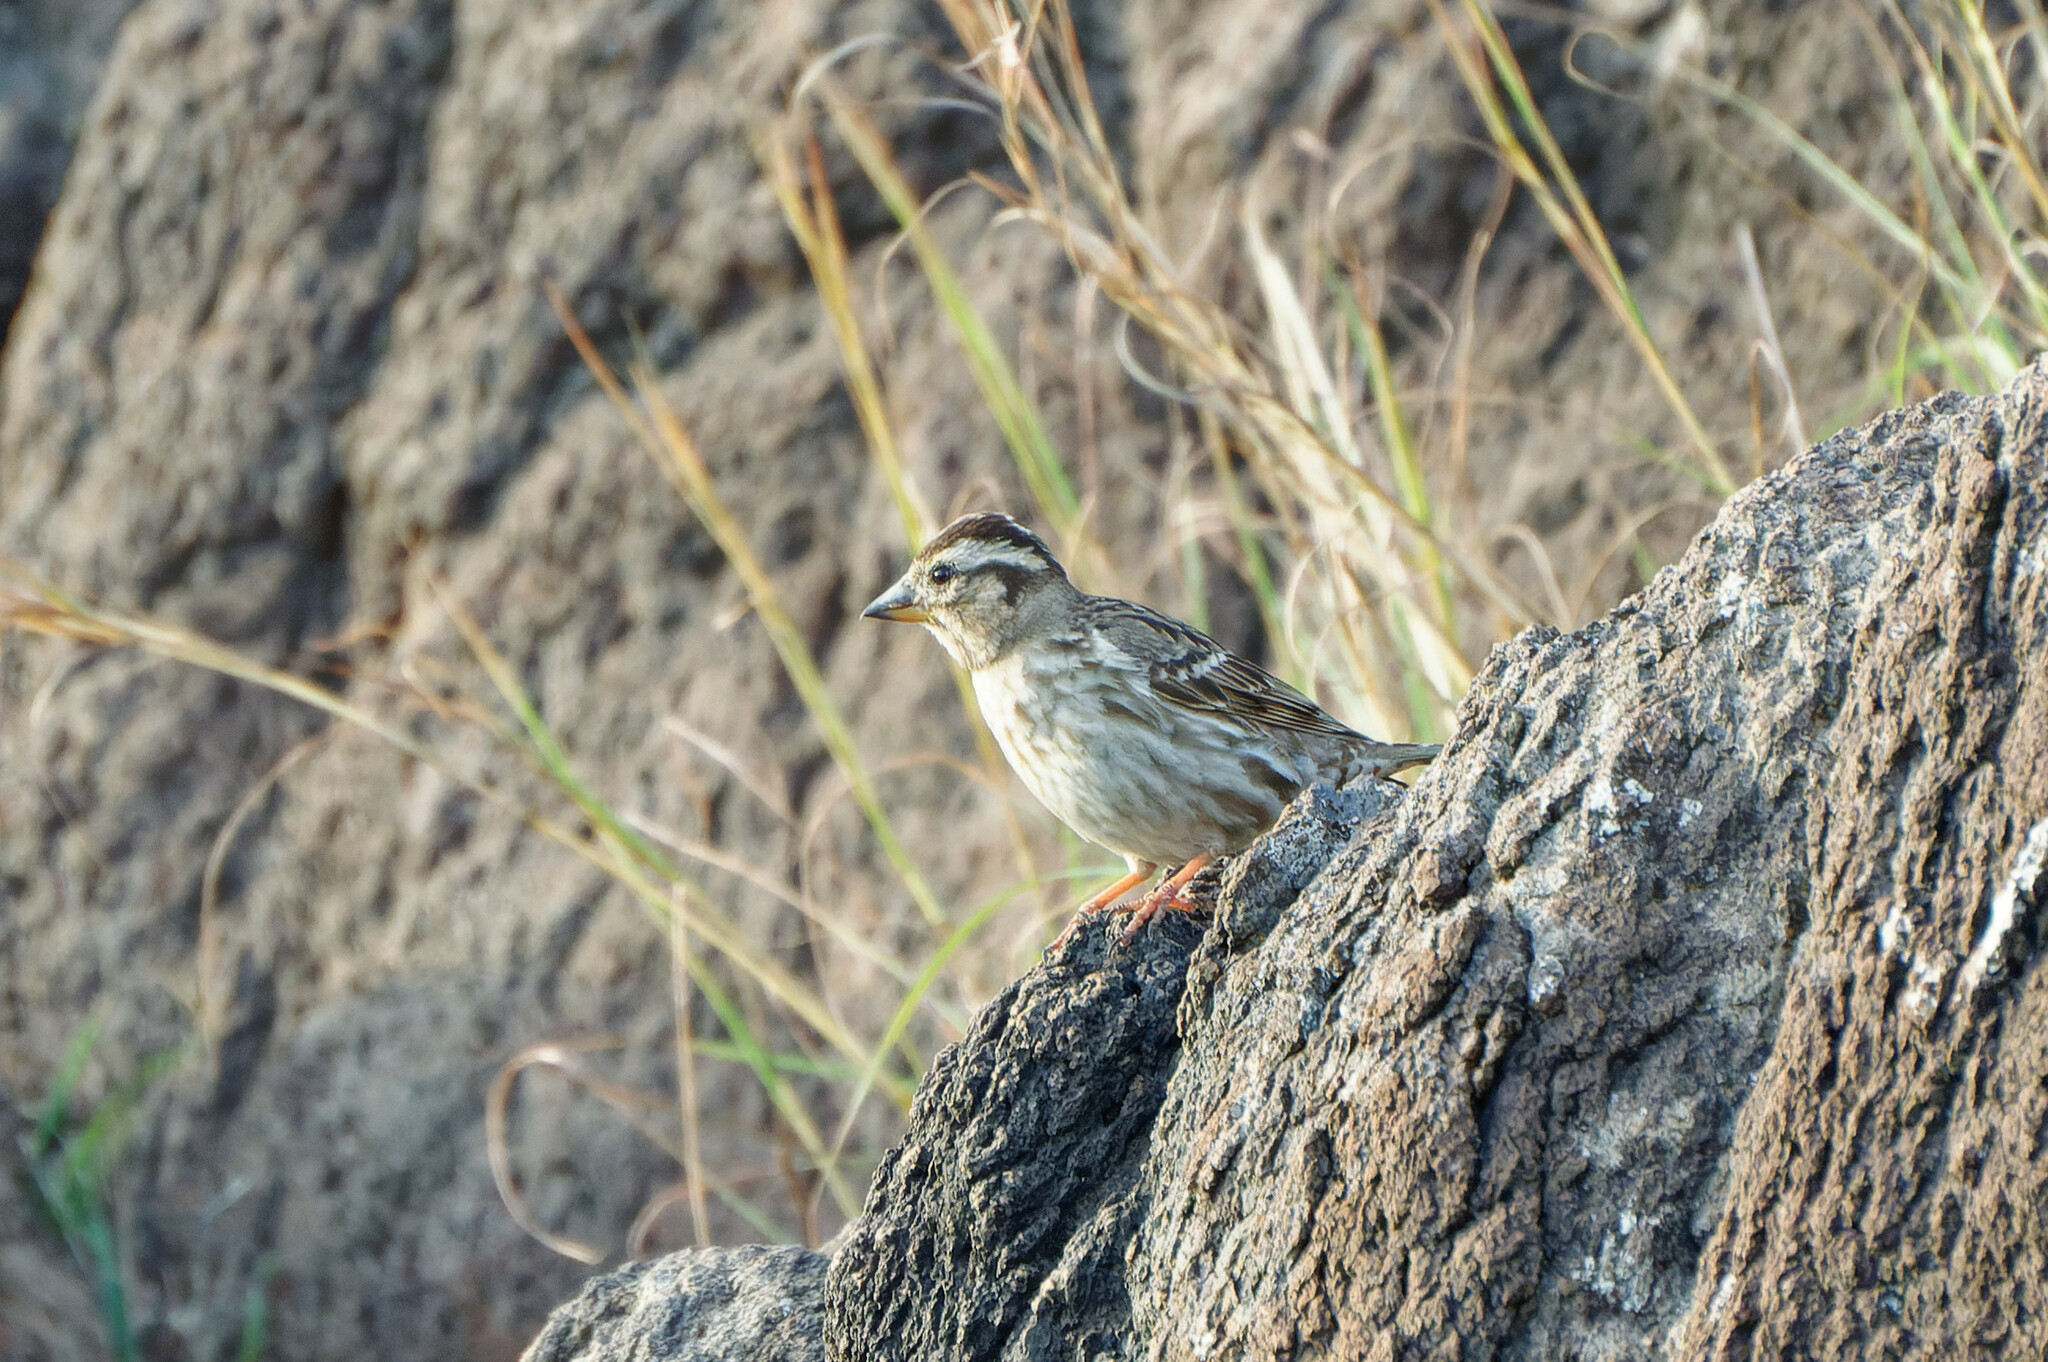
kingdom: Animalia
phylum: Chordata
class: Aves
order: Passeriformes
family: Passeridae
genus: Petronia
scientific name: Petronia petronia
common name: Rock sparrow
